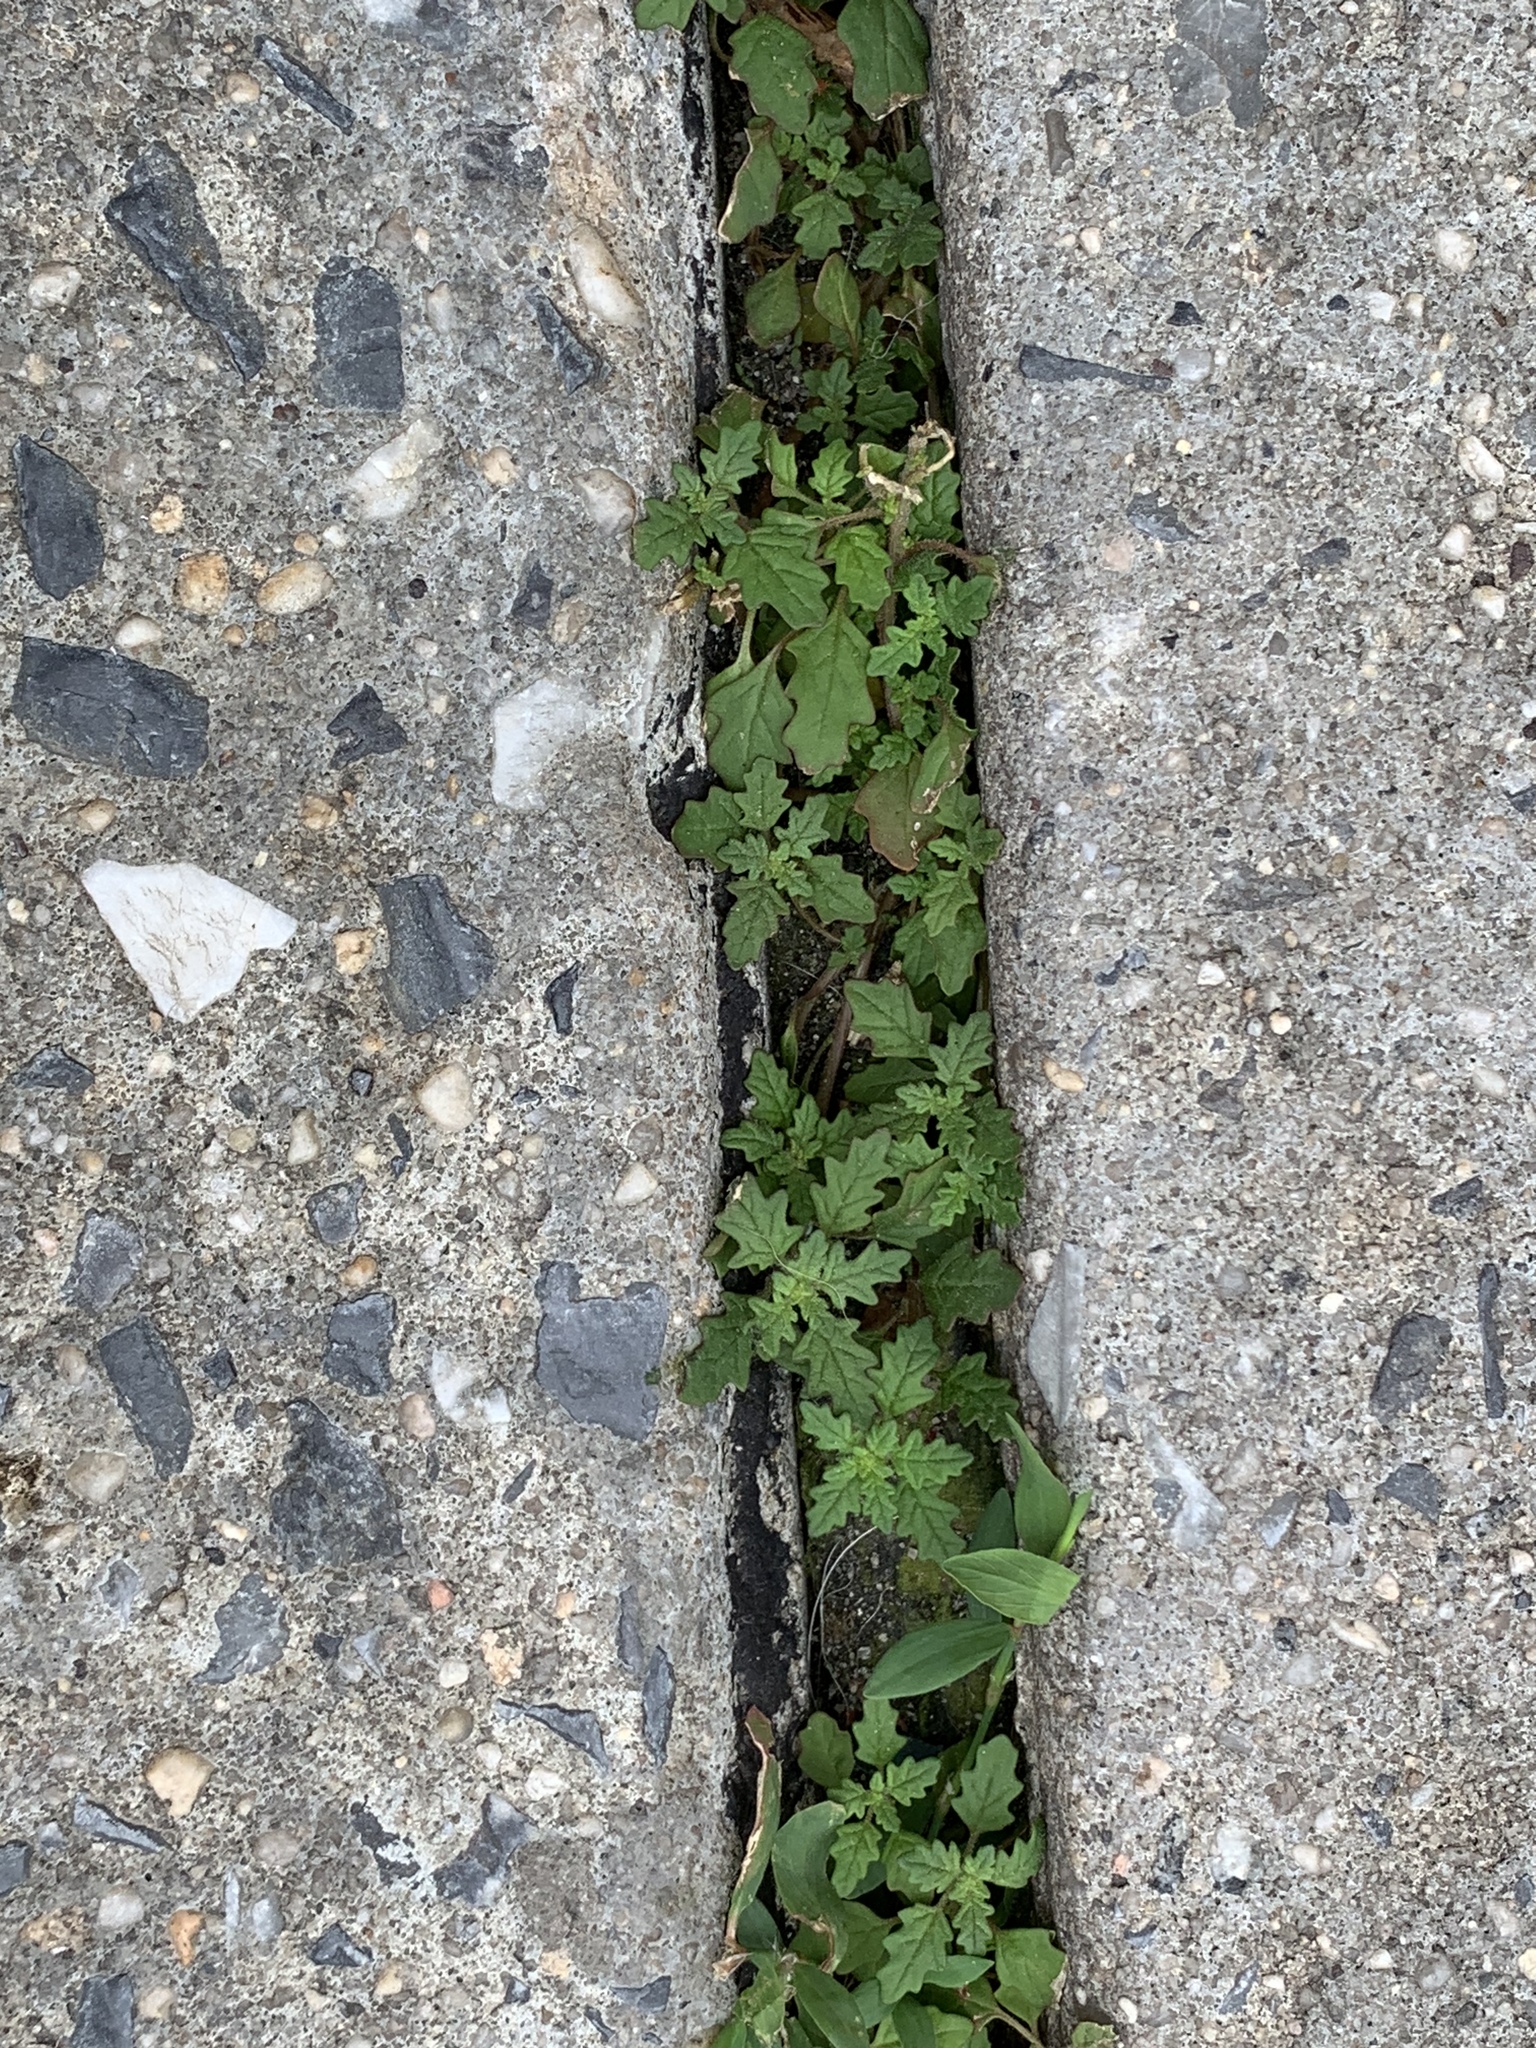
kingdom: Plantae
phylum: Tracheophyta
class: Magnoliopsida
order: Caryophyllales
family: Amaranthaceae
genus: Dysphania
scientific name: Dysphania pumilio
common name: Clammy goosefoot
